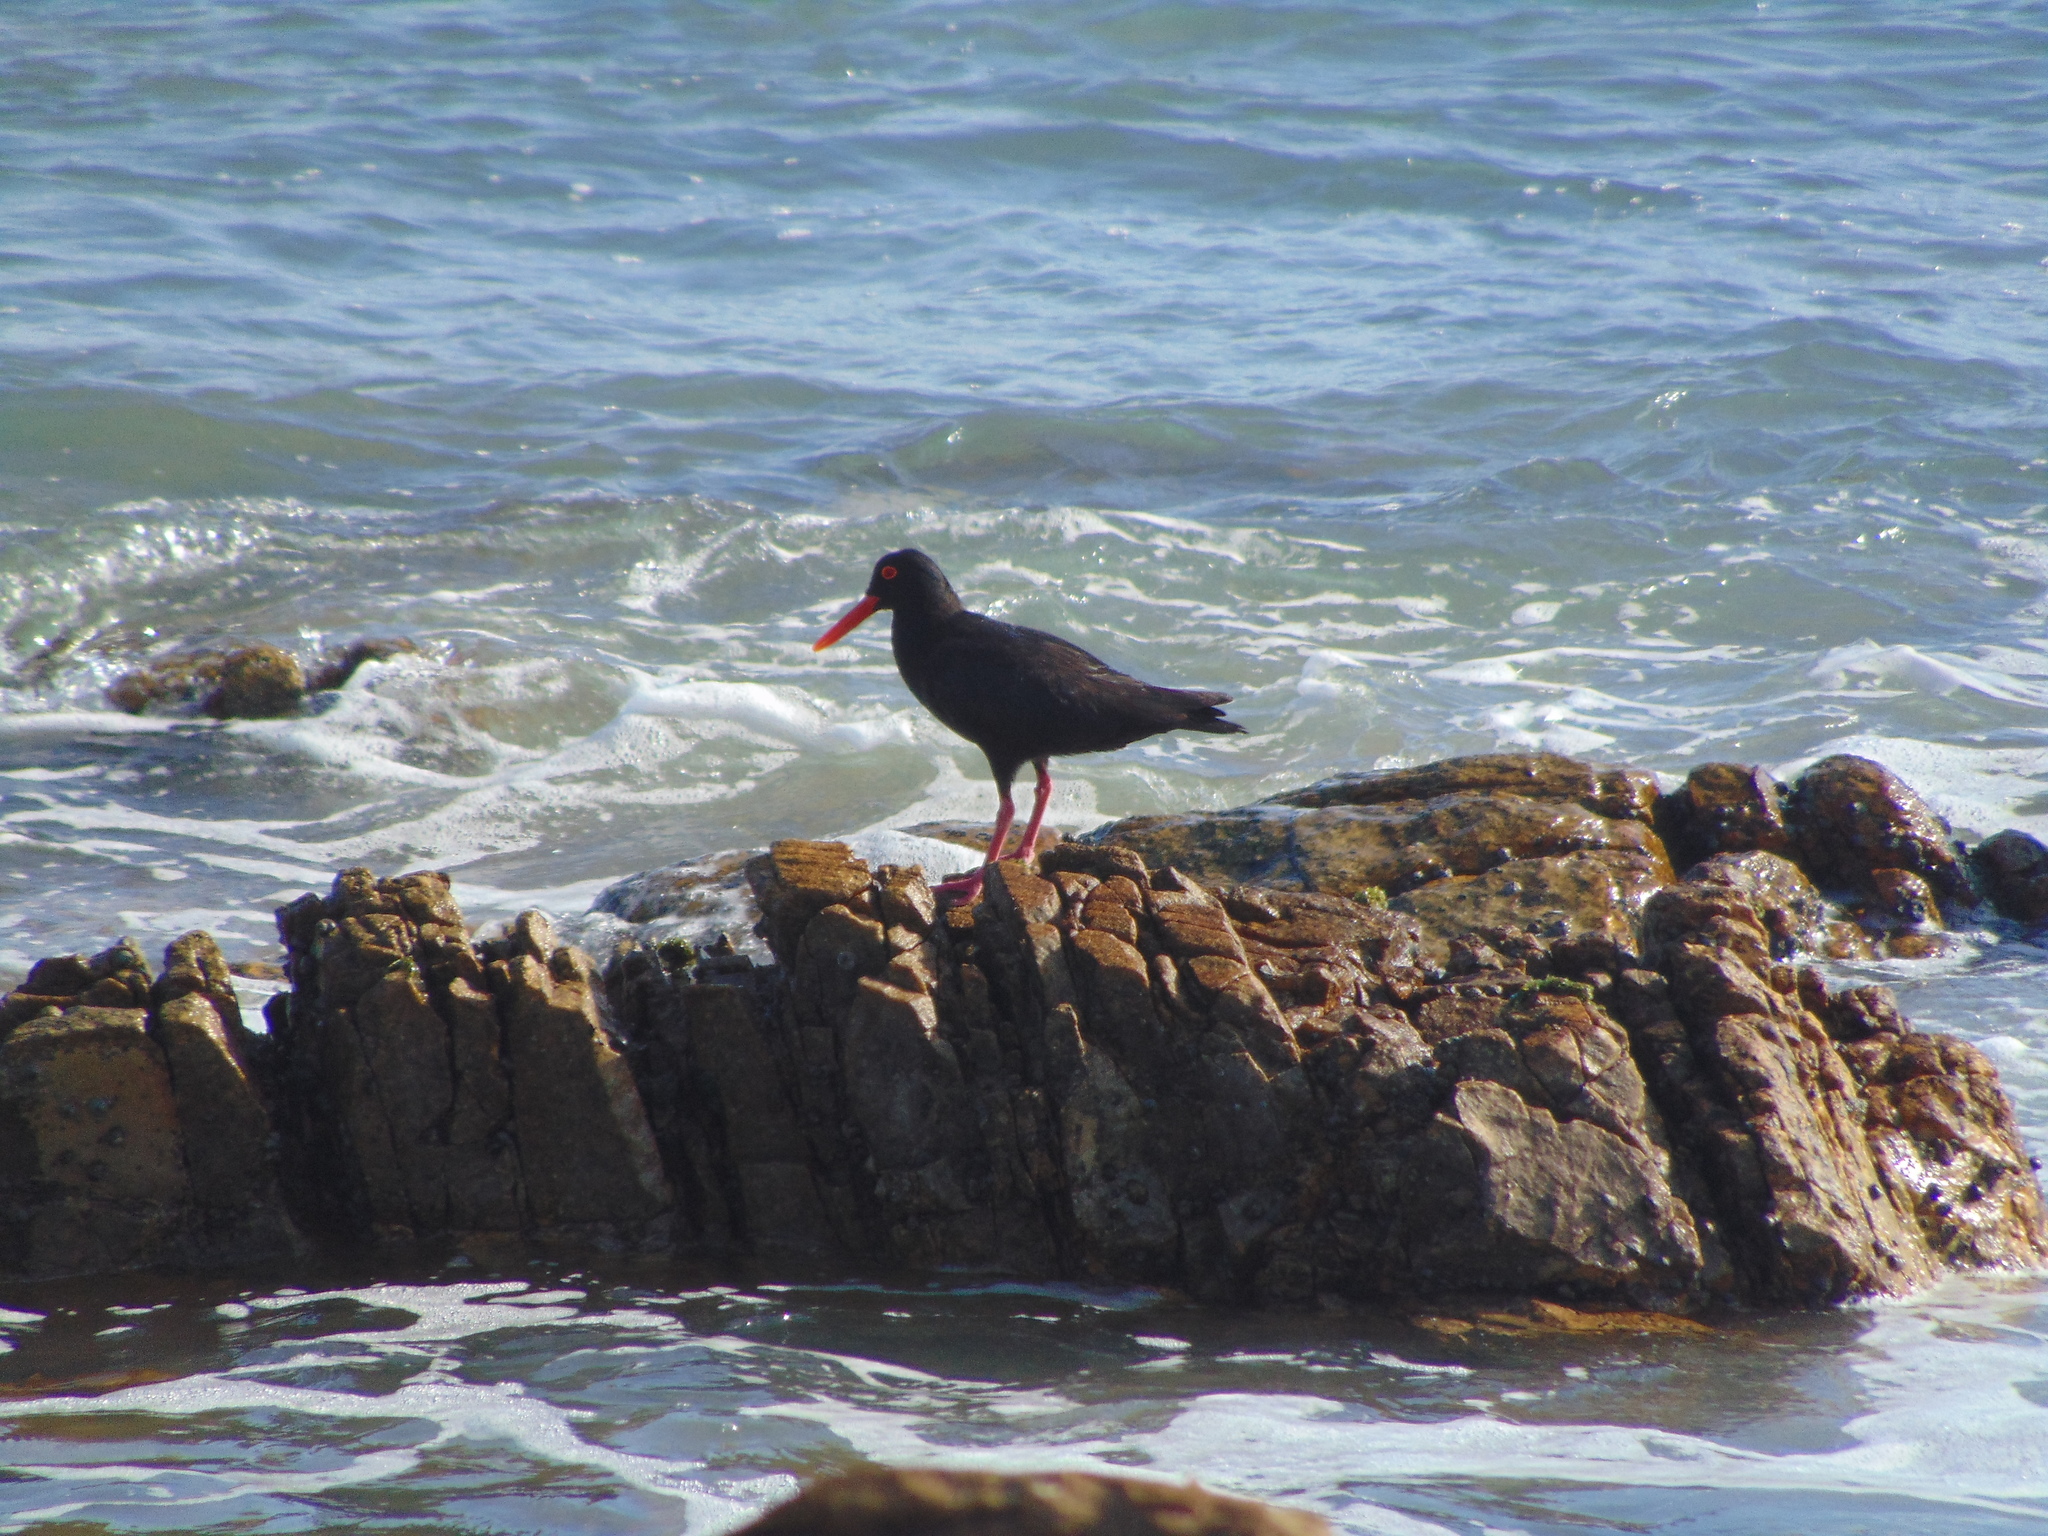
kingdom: Animalia
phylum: Chordata
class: Aves
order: Charadriiformes
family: Haematopodidae
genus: Haematopus
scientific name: Haematopus moquini
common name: African oystercatcher
